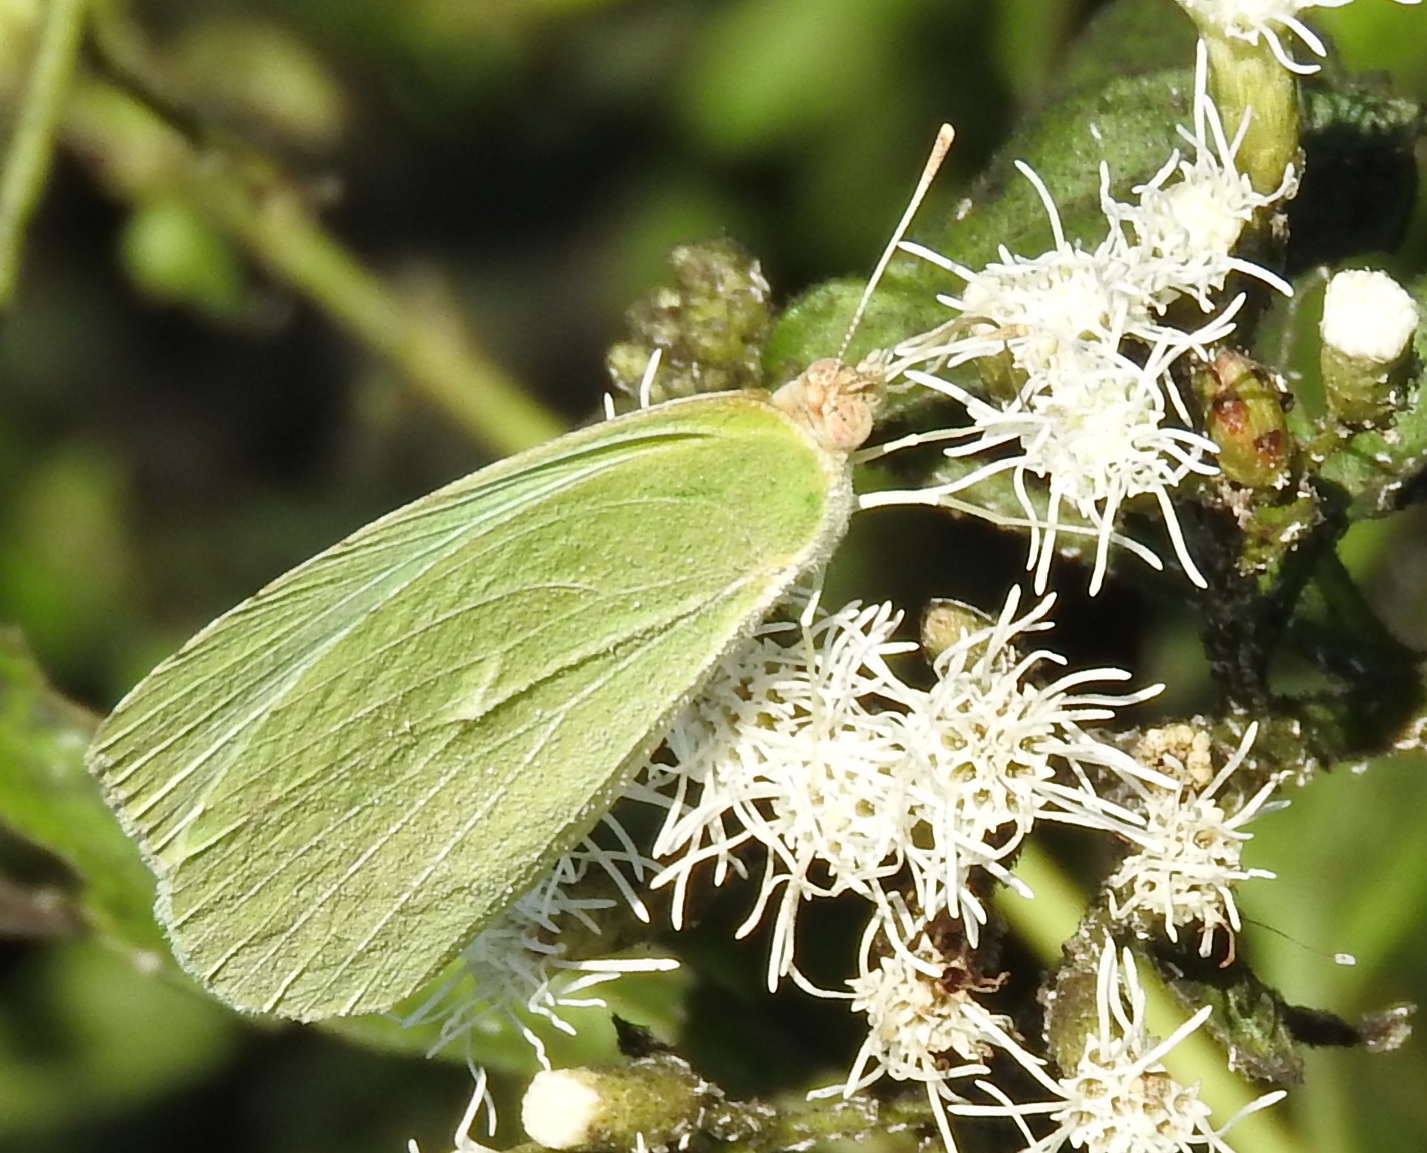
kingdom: Animalia
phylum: Arthropoda
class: Insecta
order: Lepidoptera
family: Pieridae
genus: Kricogonia
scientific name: Kricogonia lyside
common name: Guayacan sulphur,
